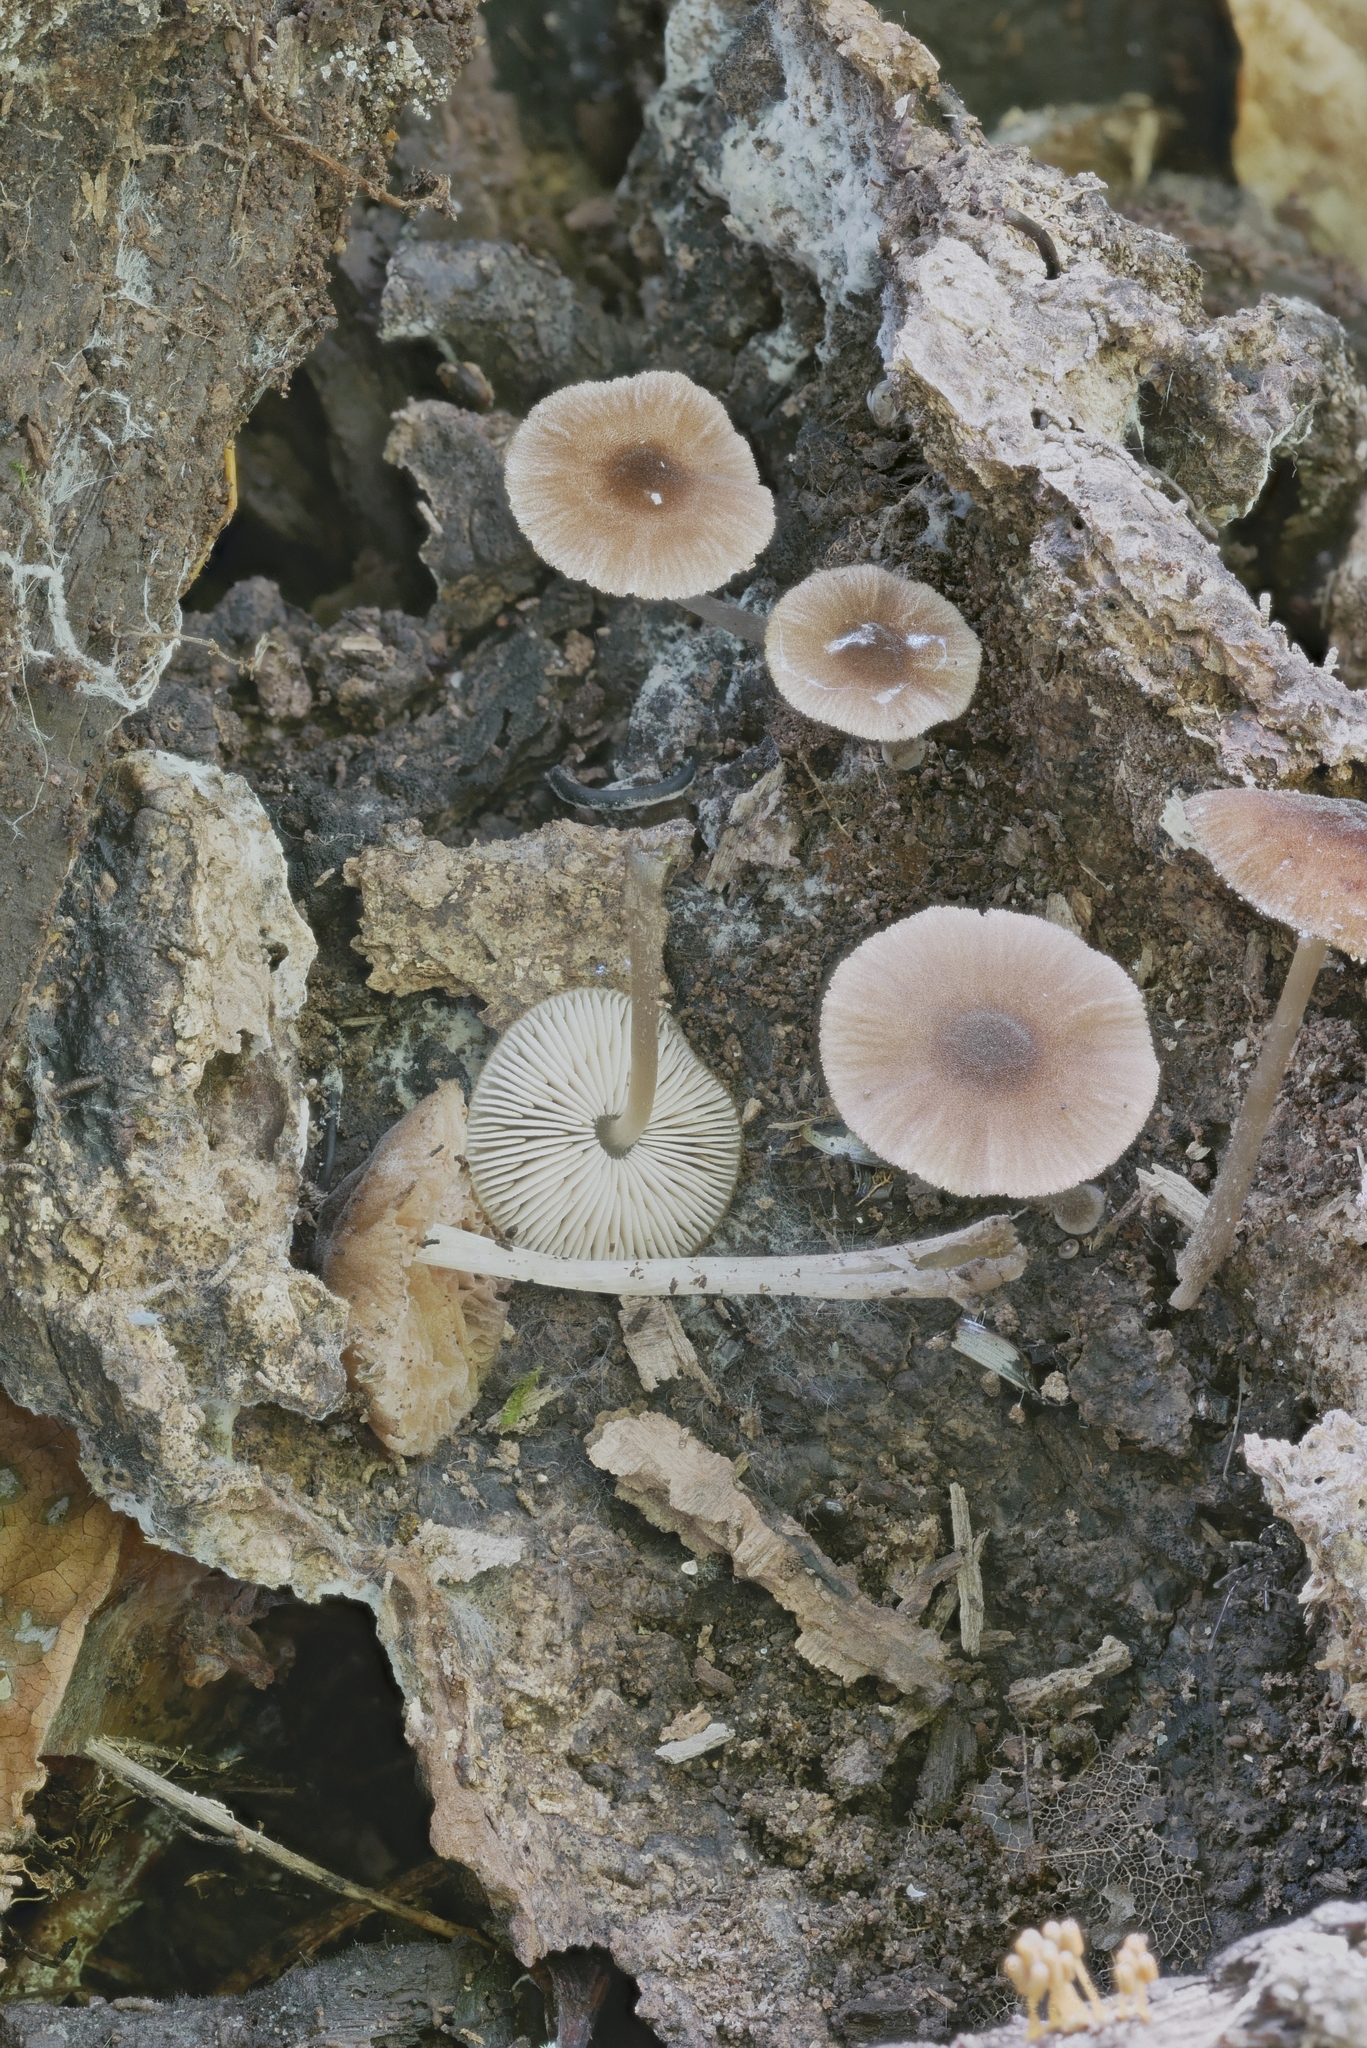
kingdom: Fungi
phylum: Basidiomycota
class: Agaricomycetes
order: Agaricales
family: Pluteaceae
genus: Pluteus
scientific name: Pluteus podospileus
